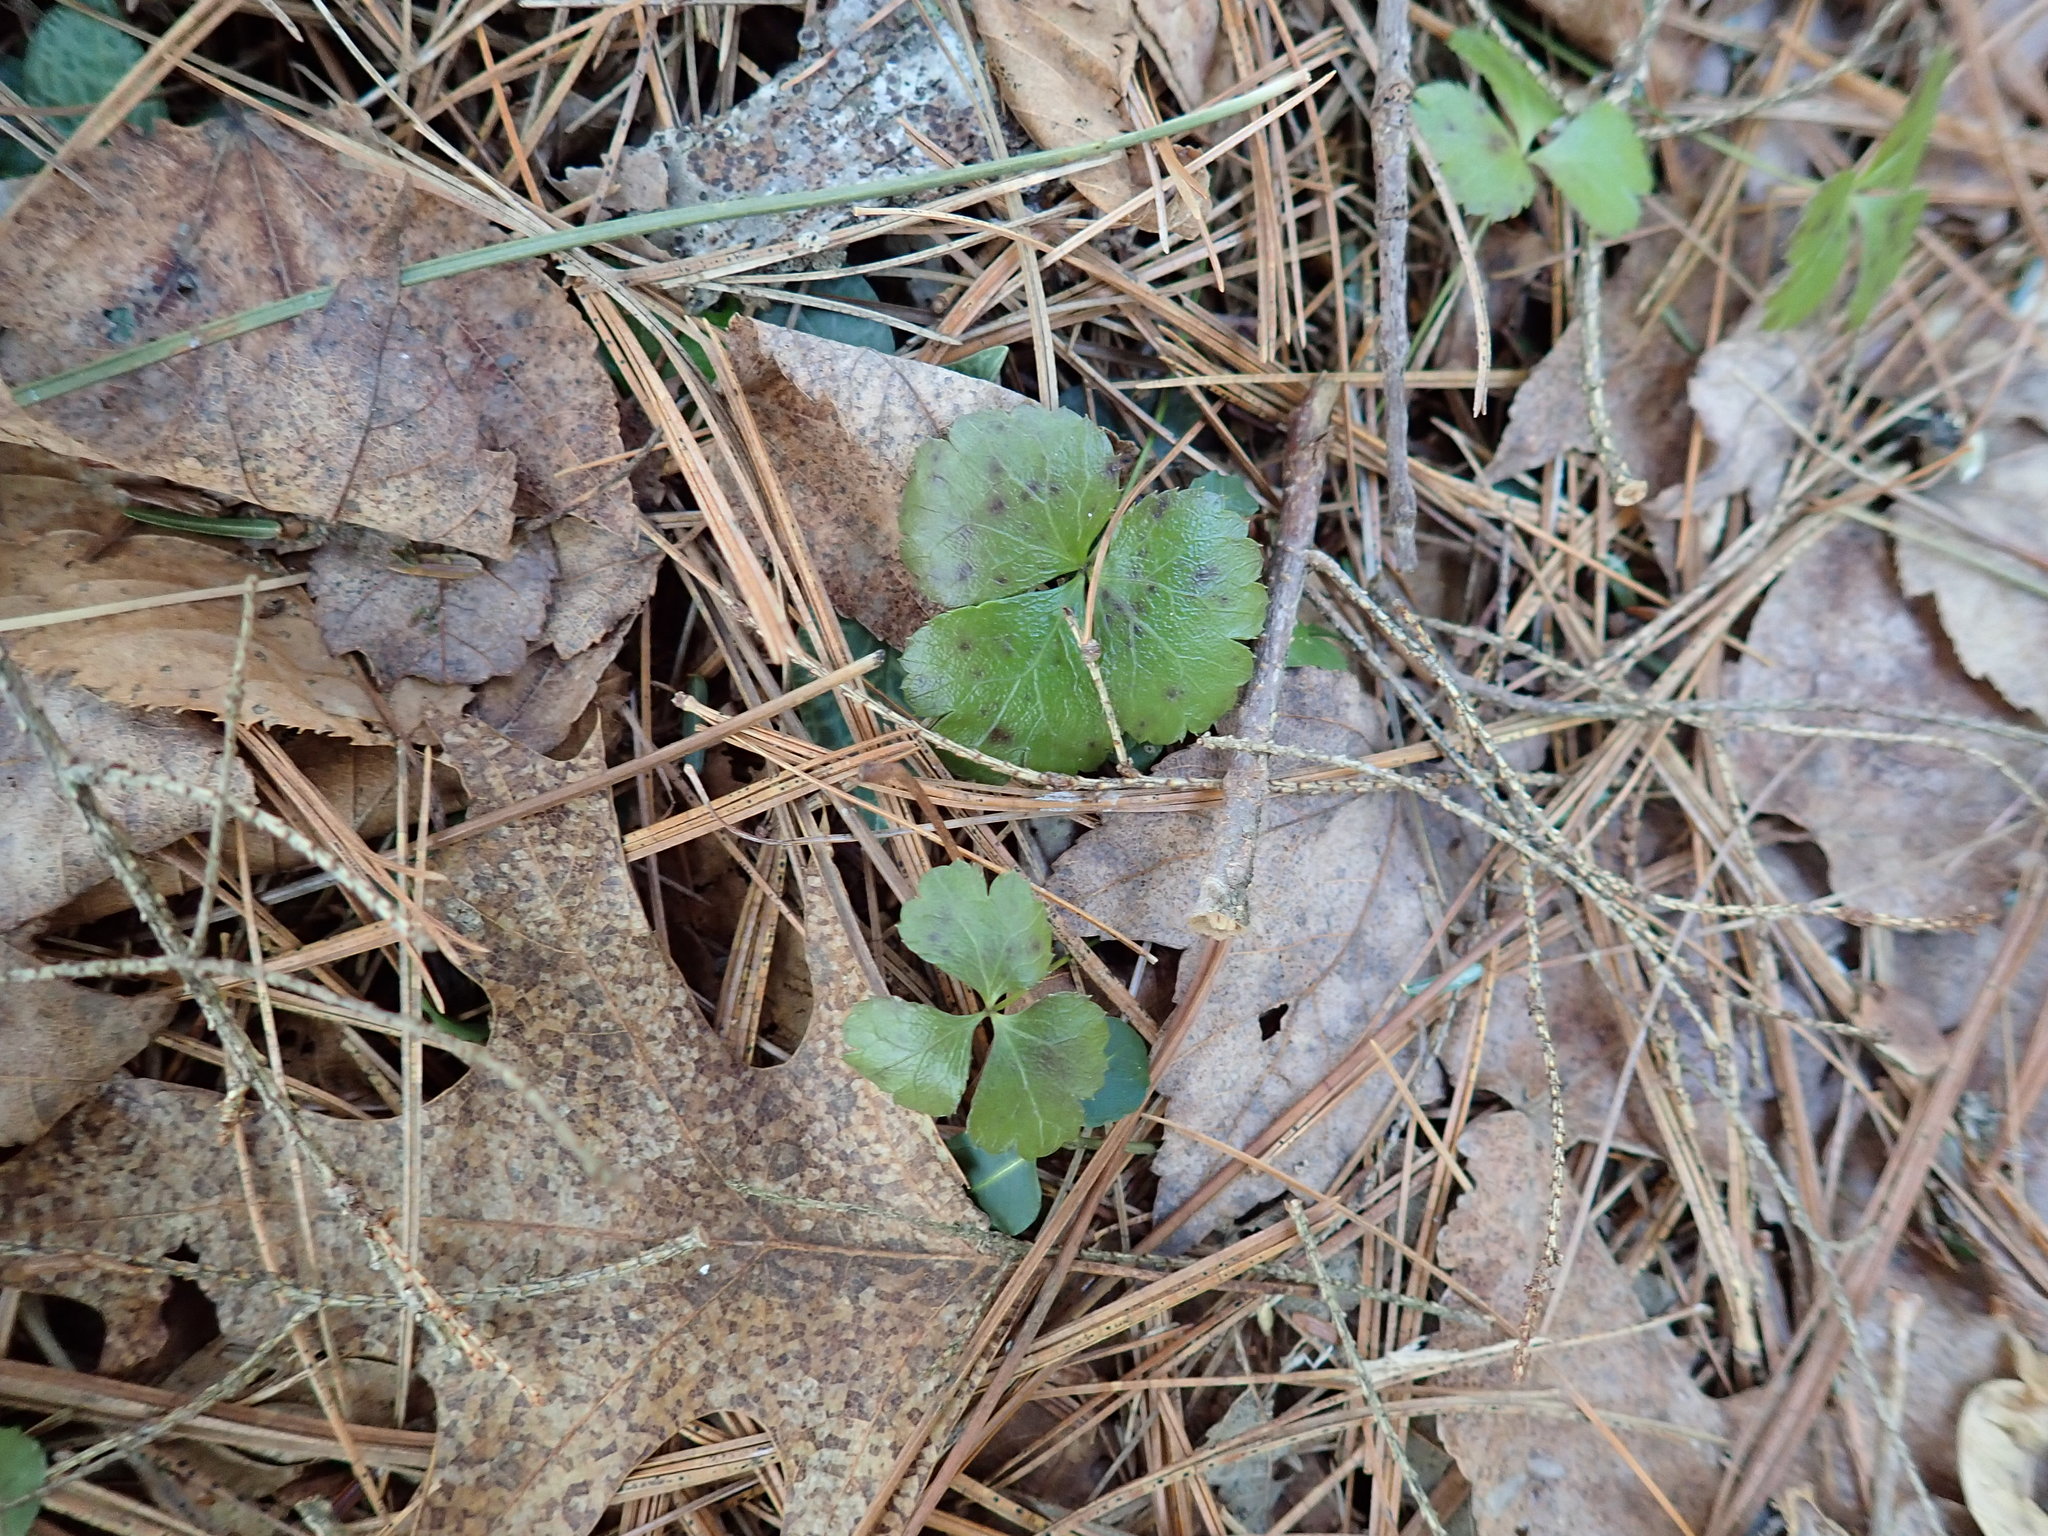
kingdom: Plantae
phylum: Tracheophyta
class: Magnoliopsida
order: Ranunculales
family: Ranunculaceae
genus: Coptis
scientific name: Coptis trifolia
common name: Canker-root
